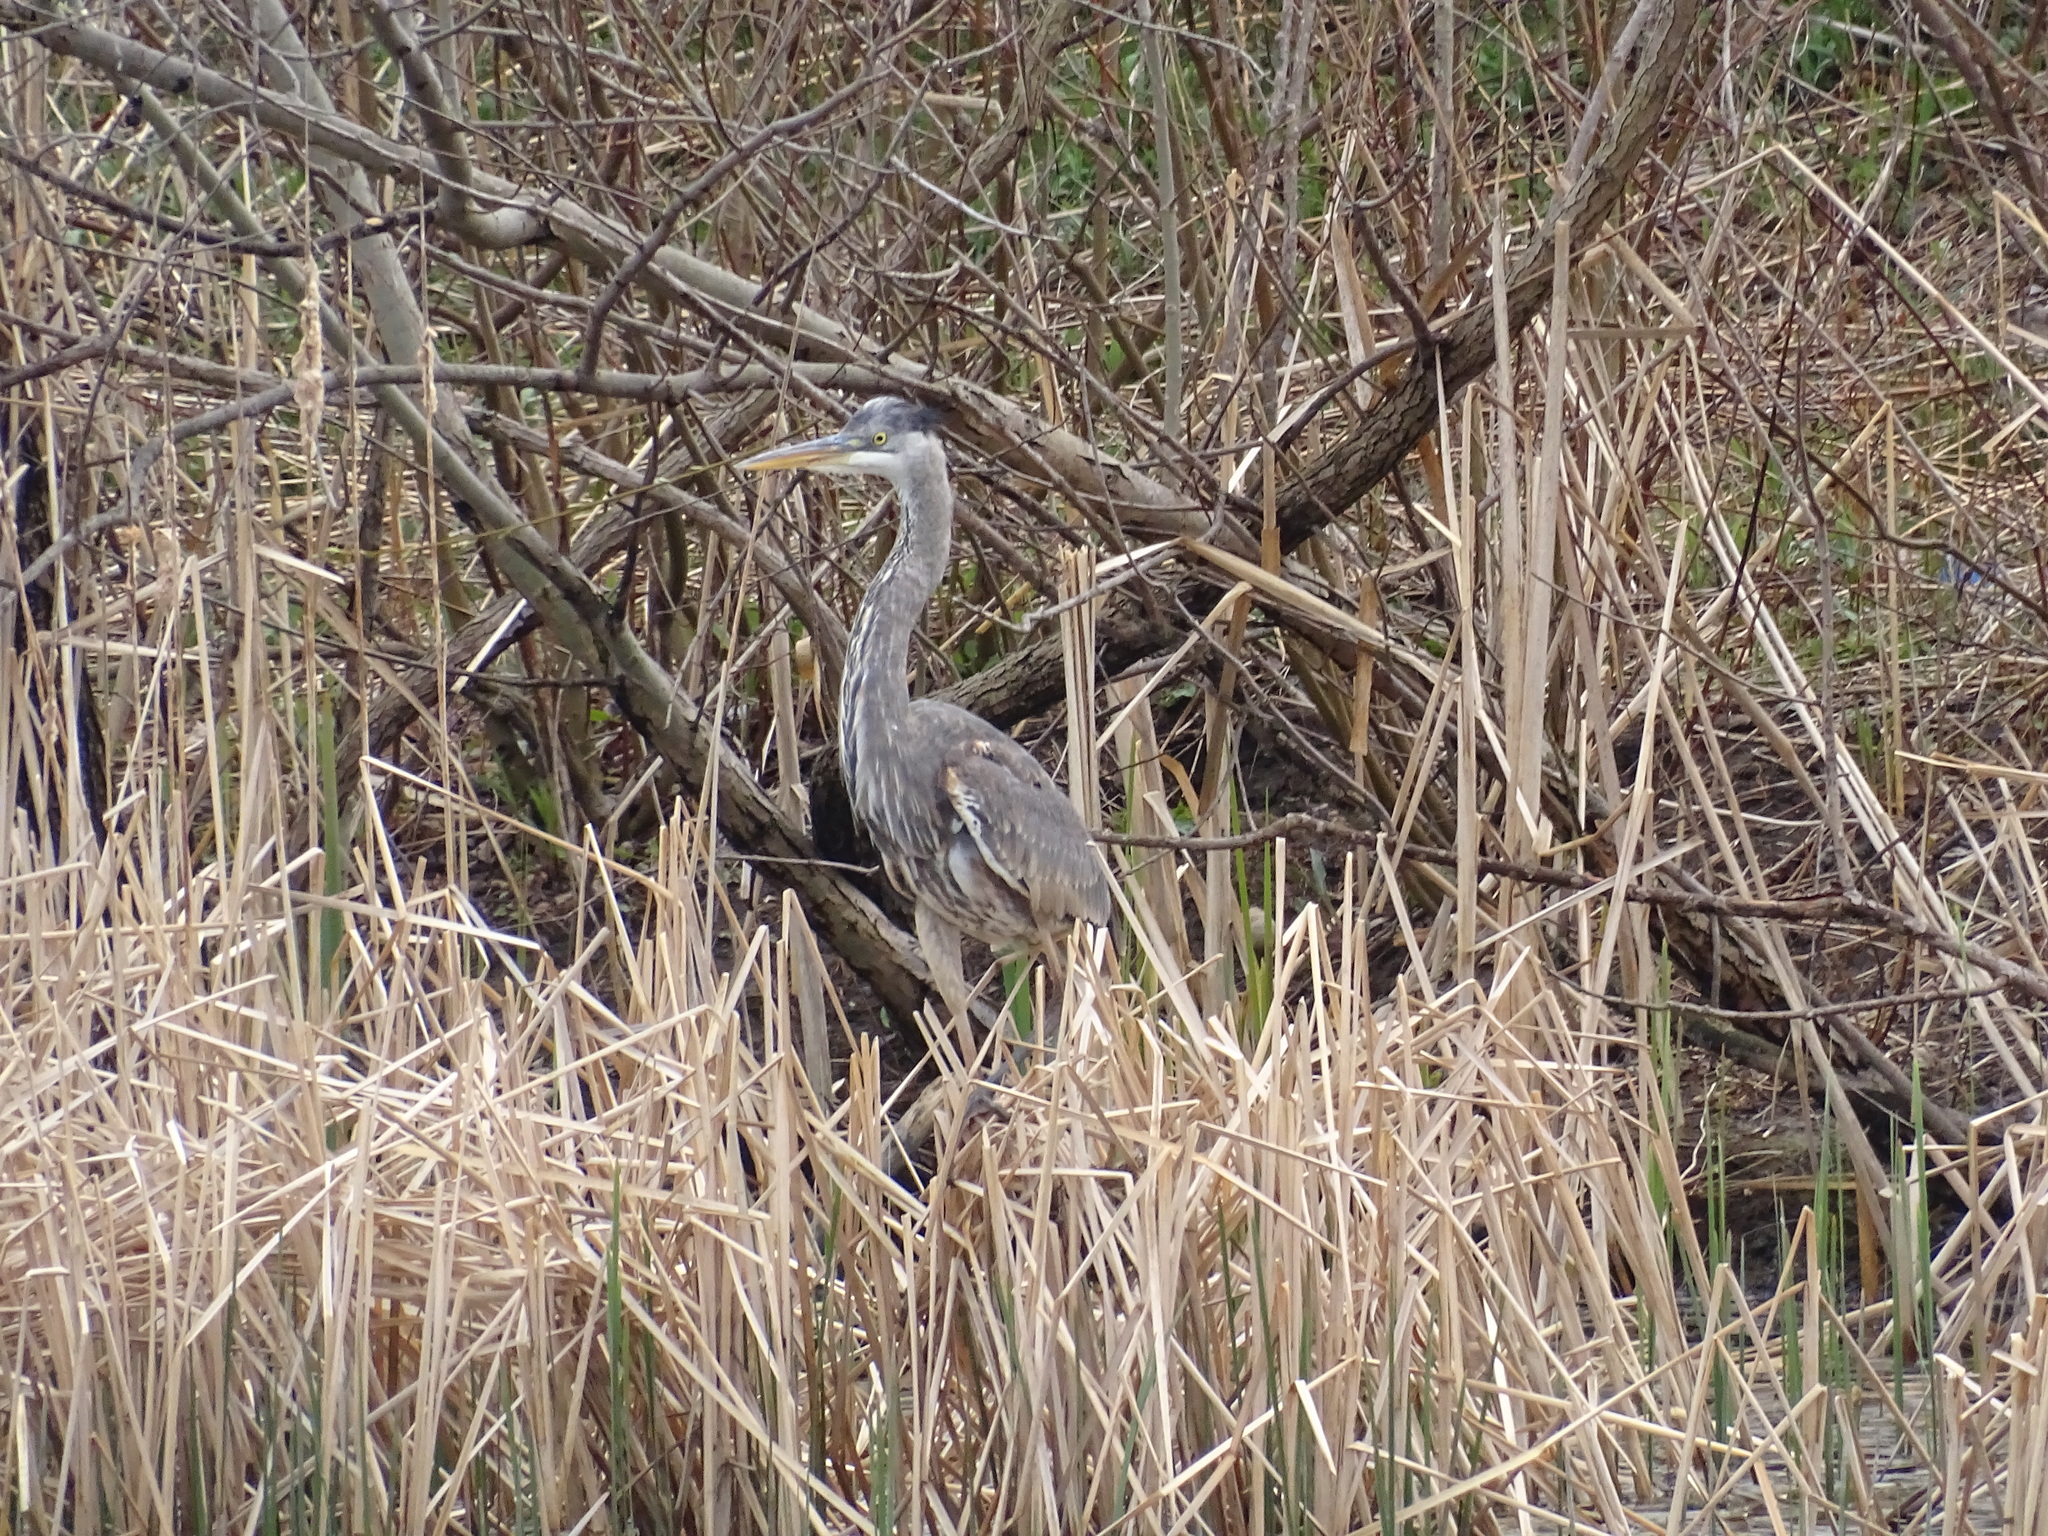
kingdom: Animalia
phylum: Chordata
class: Aves
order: Pelecaniformes
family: Ardeidae
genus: Ardea
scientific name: Ardea herodias
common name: Great blue heron
